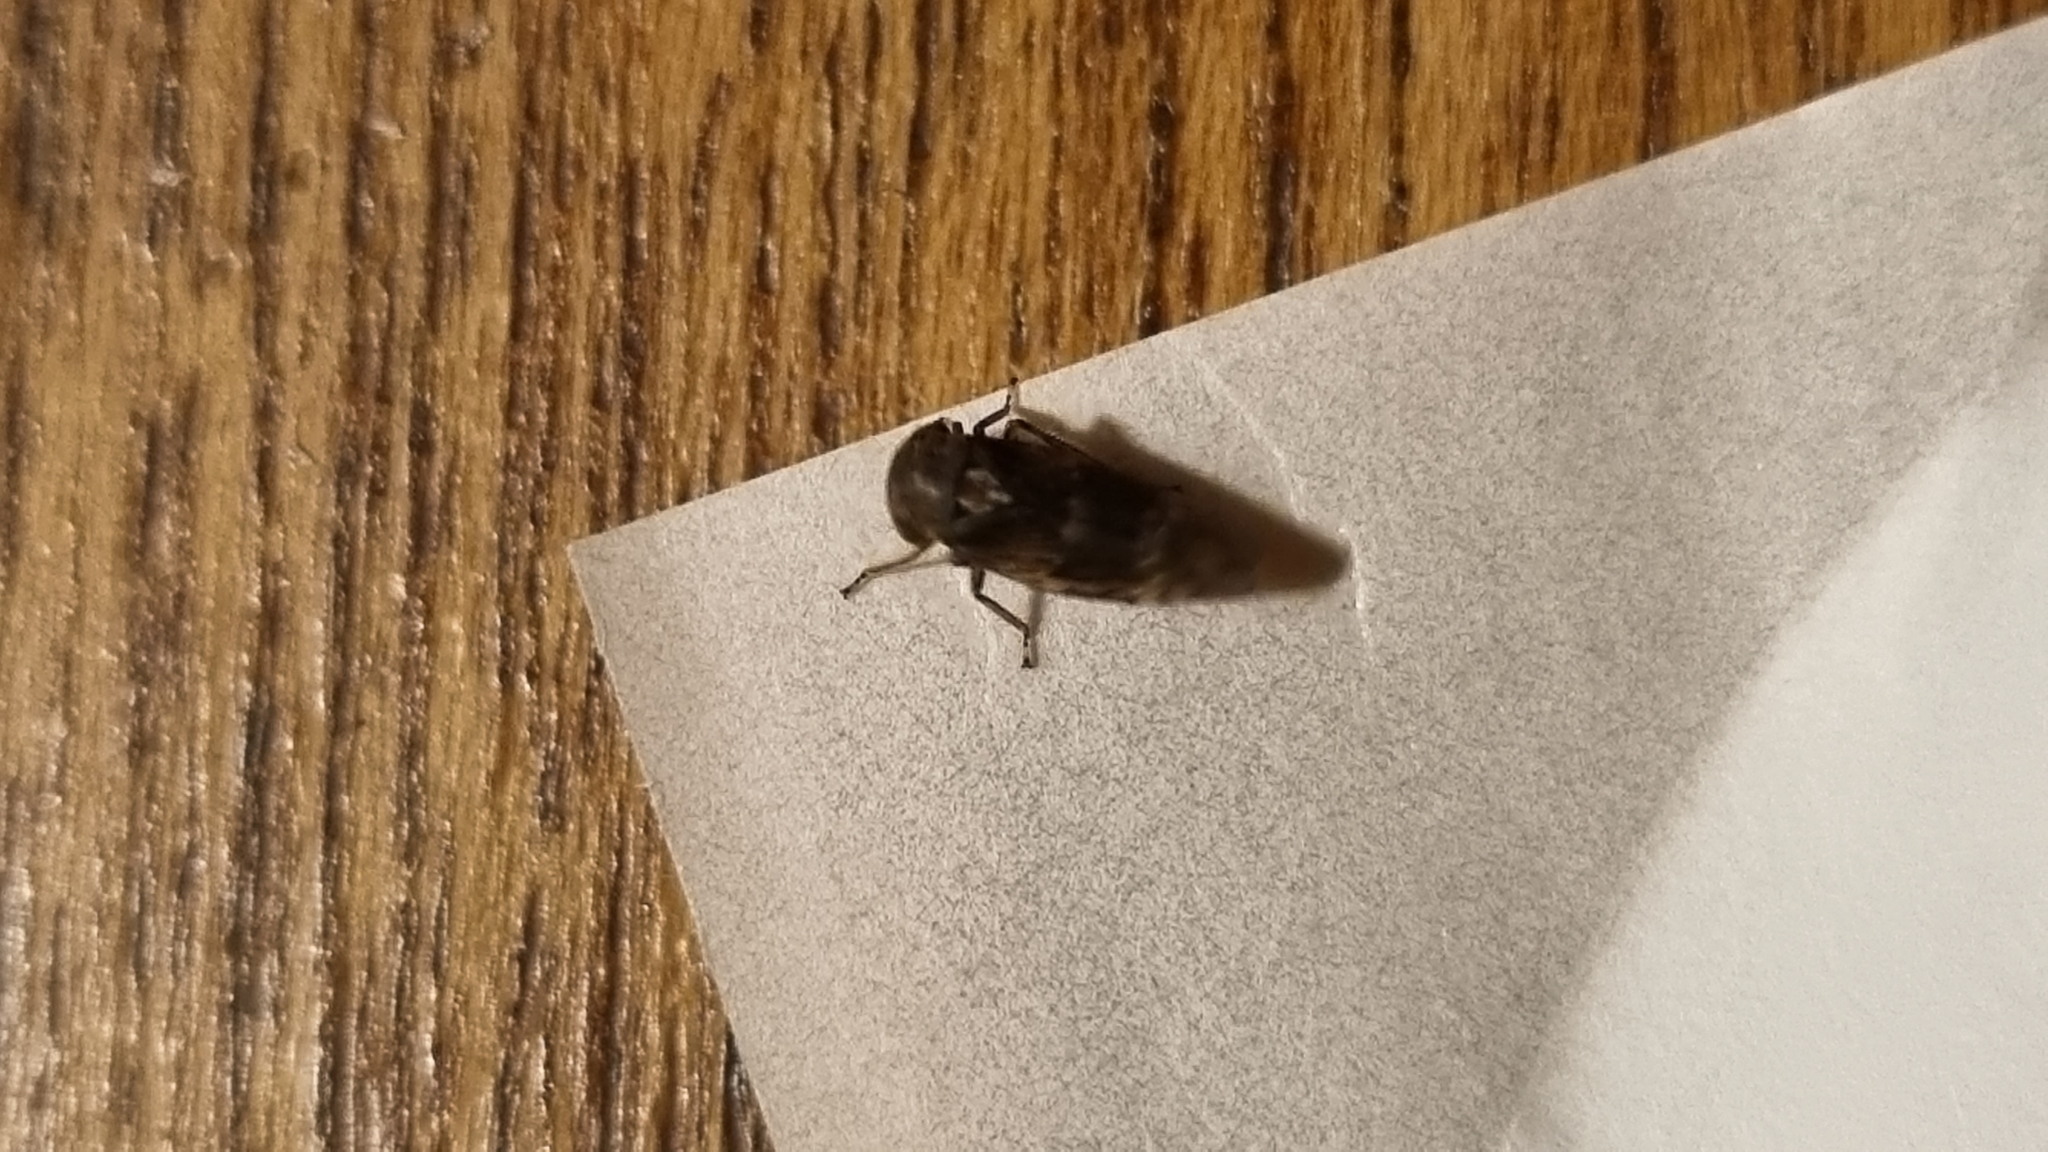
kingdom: Animalia
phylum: Arthropoda
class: Insecta
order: Hemiptera
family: Cicadellidae
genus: Acericerus
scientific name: Acericerus ribauti
